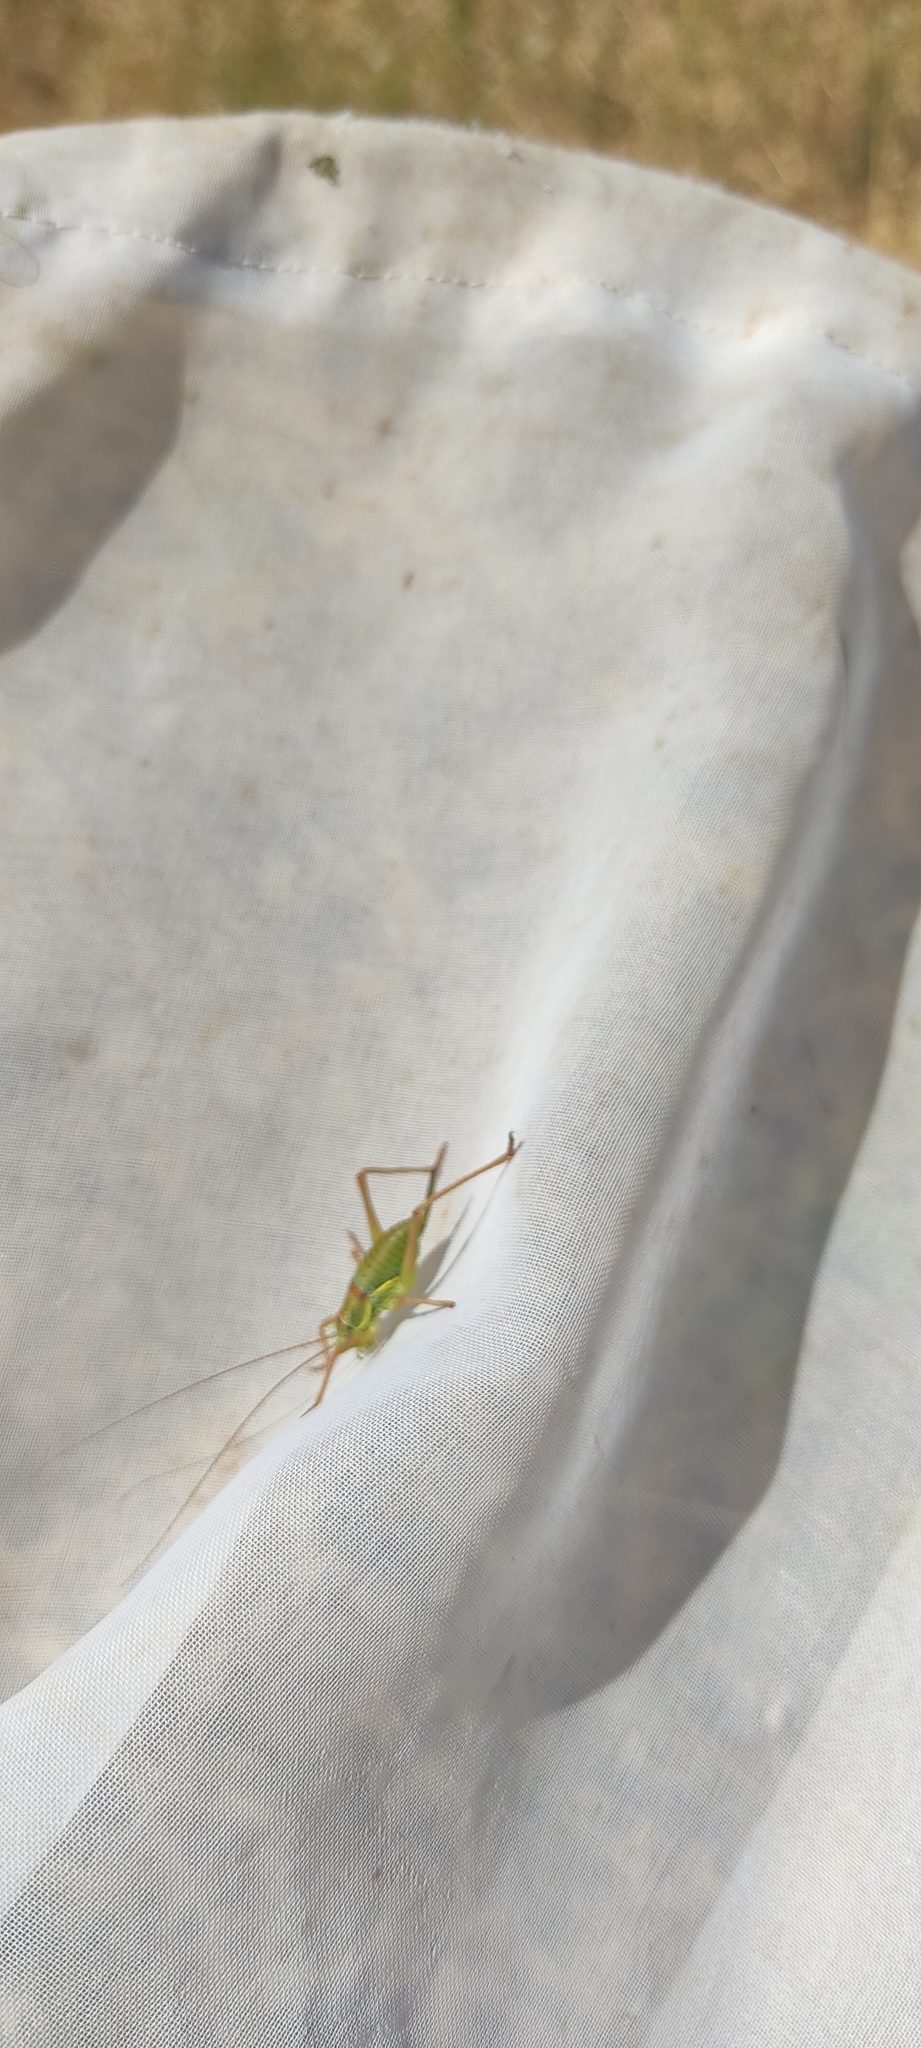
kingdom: Animalia
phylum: Arthropoda
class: Insecta
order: Orthoptera
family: Tettigoniidae
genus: Ephippiger
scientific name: Ephippiger diurnus
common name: Western saddle bush-cricket
